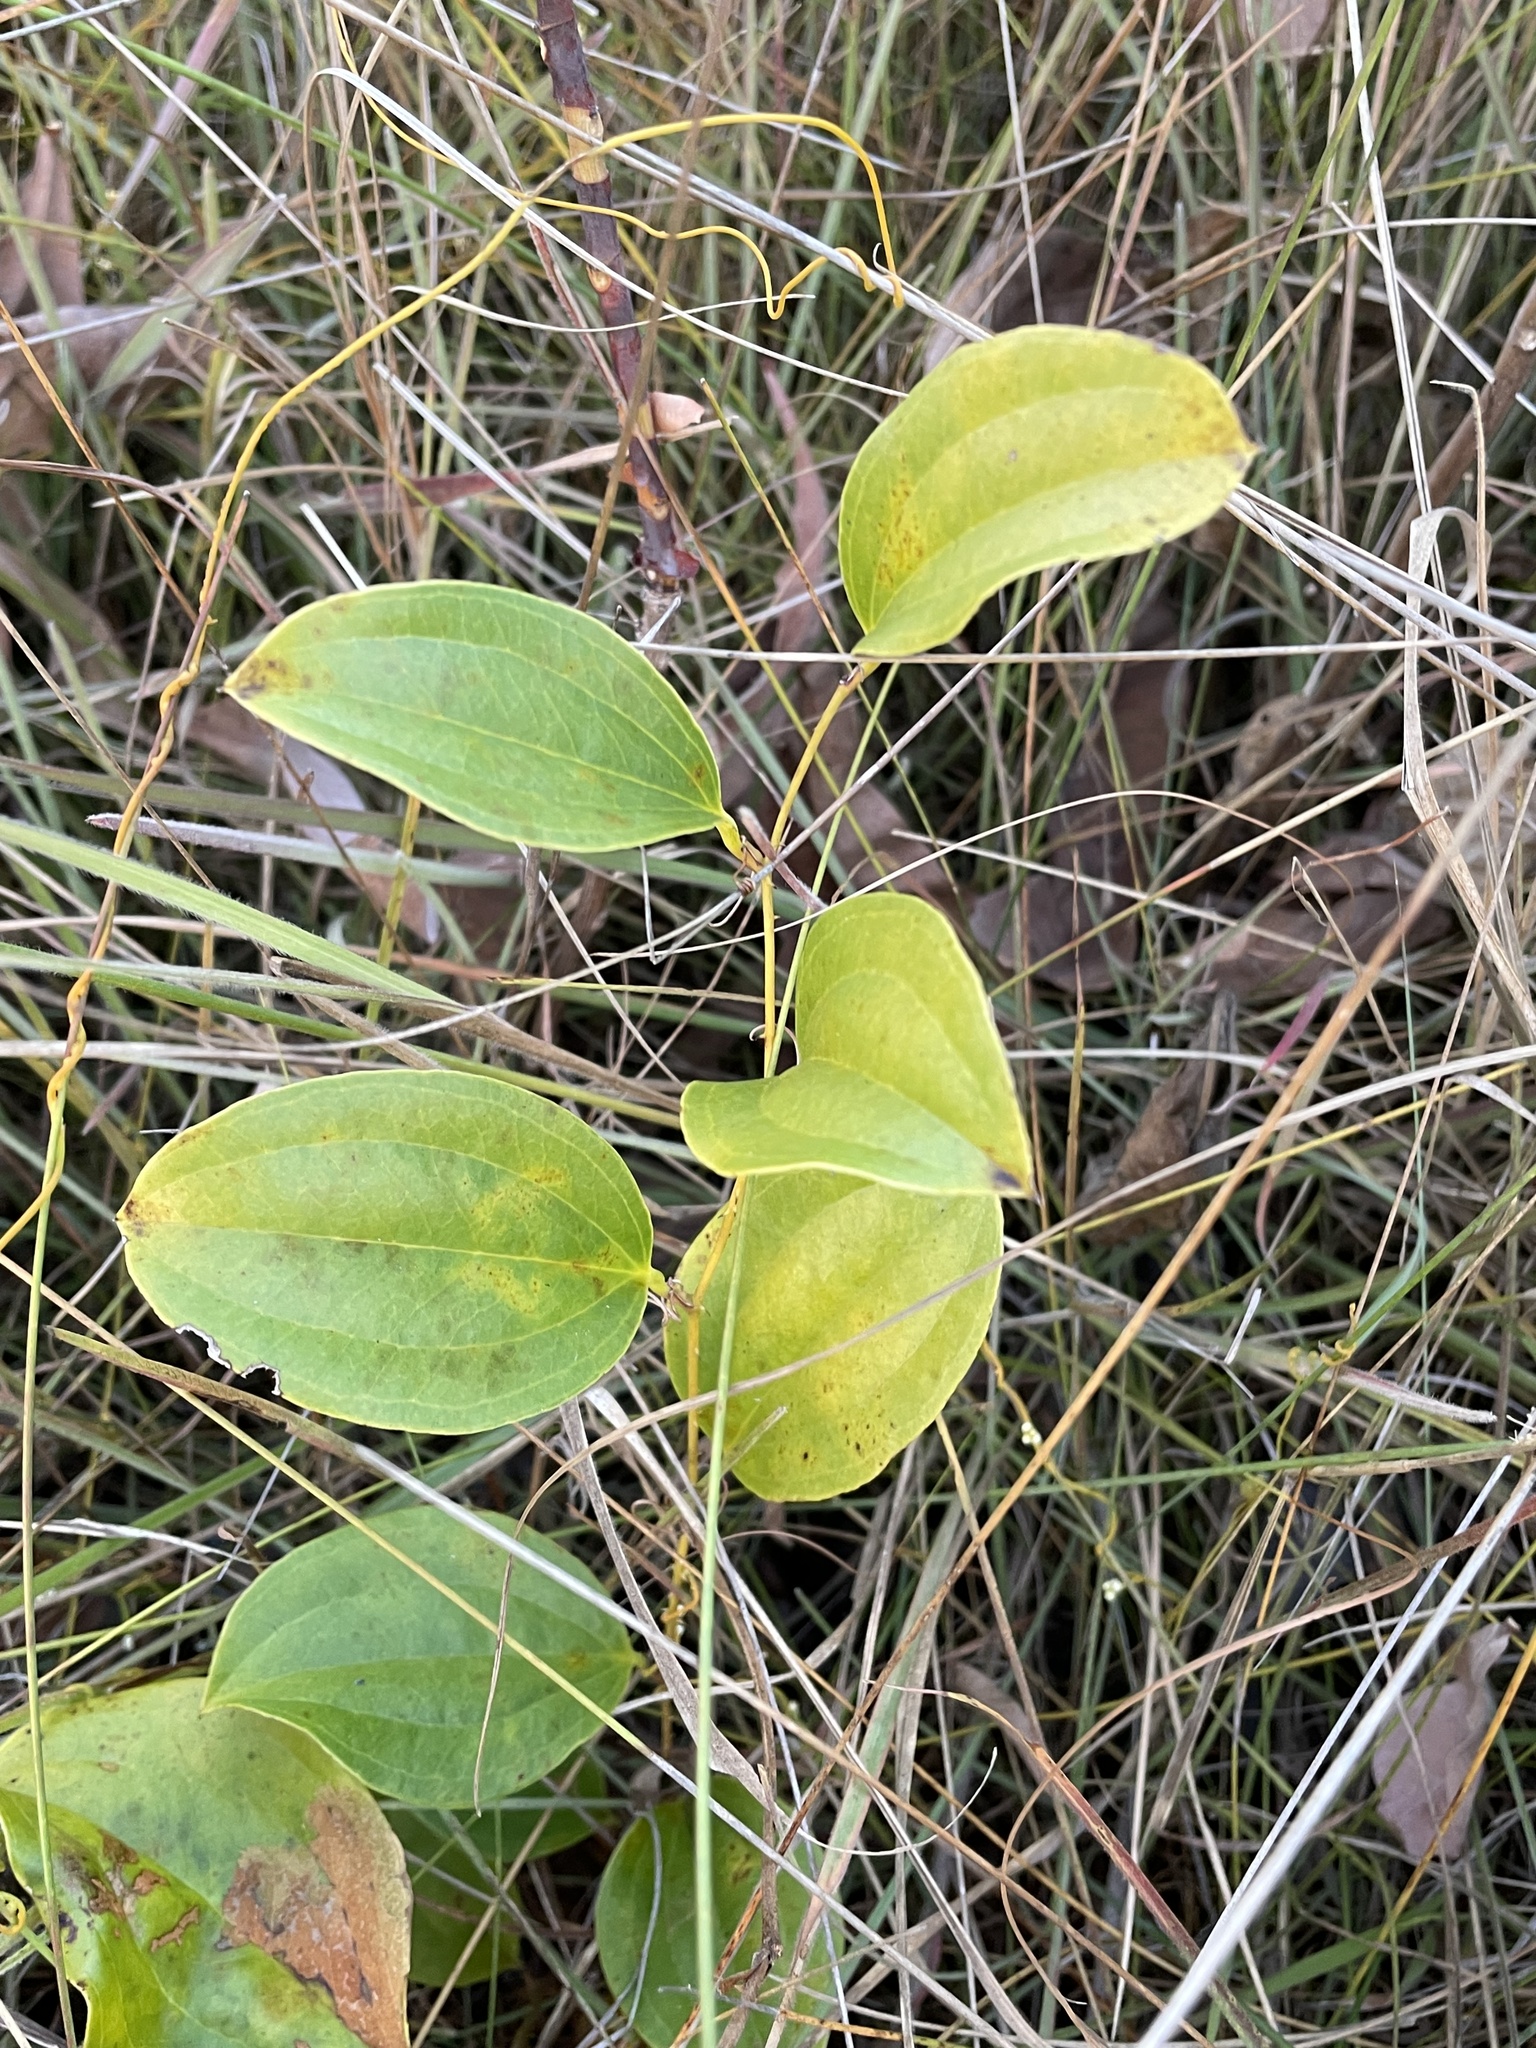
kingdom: Plantae
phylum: Tracheophyta
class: Liliopsida
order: Liliales
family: Smilacaceae
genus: Smilax
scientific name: Smilax anceps
